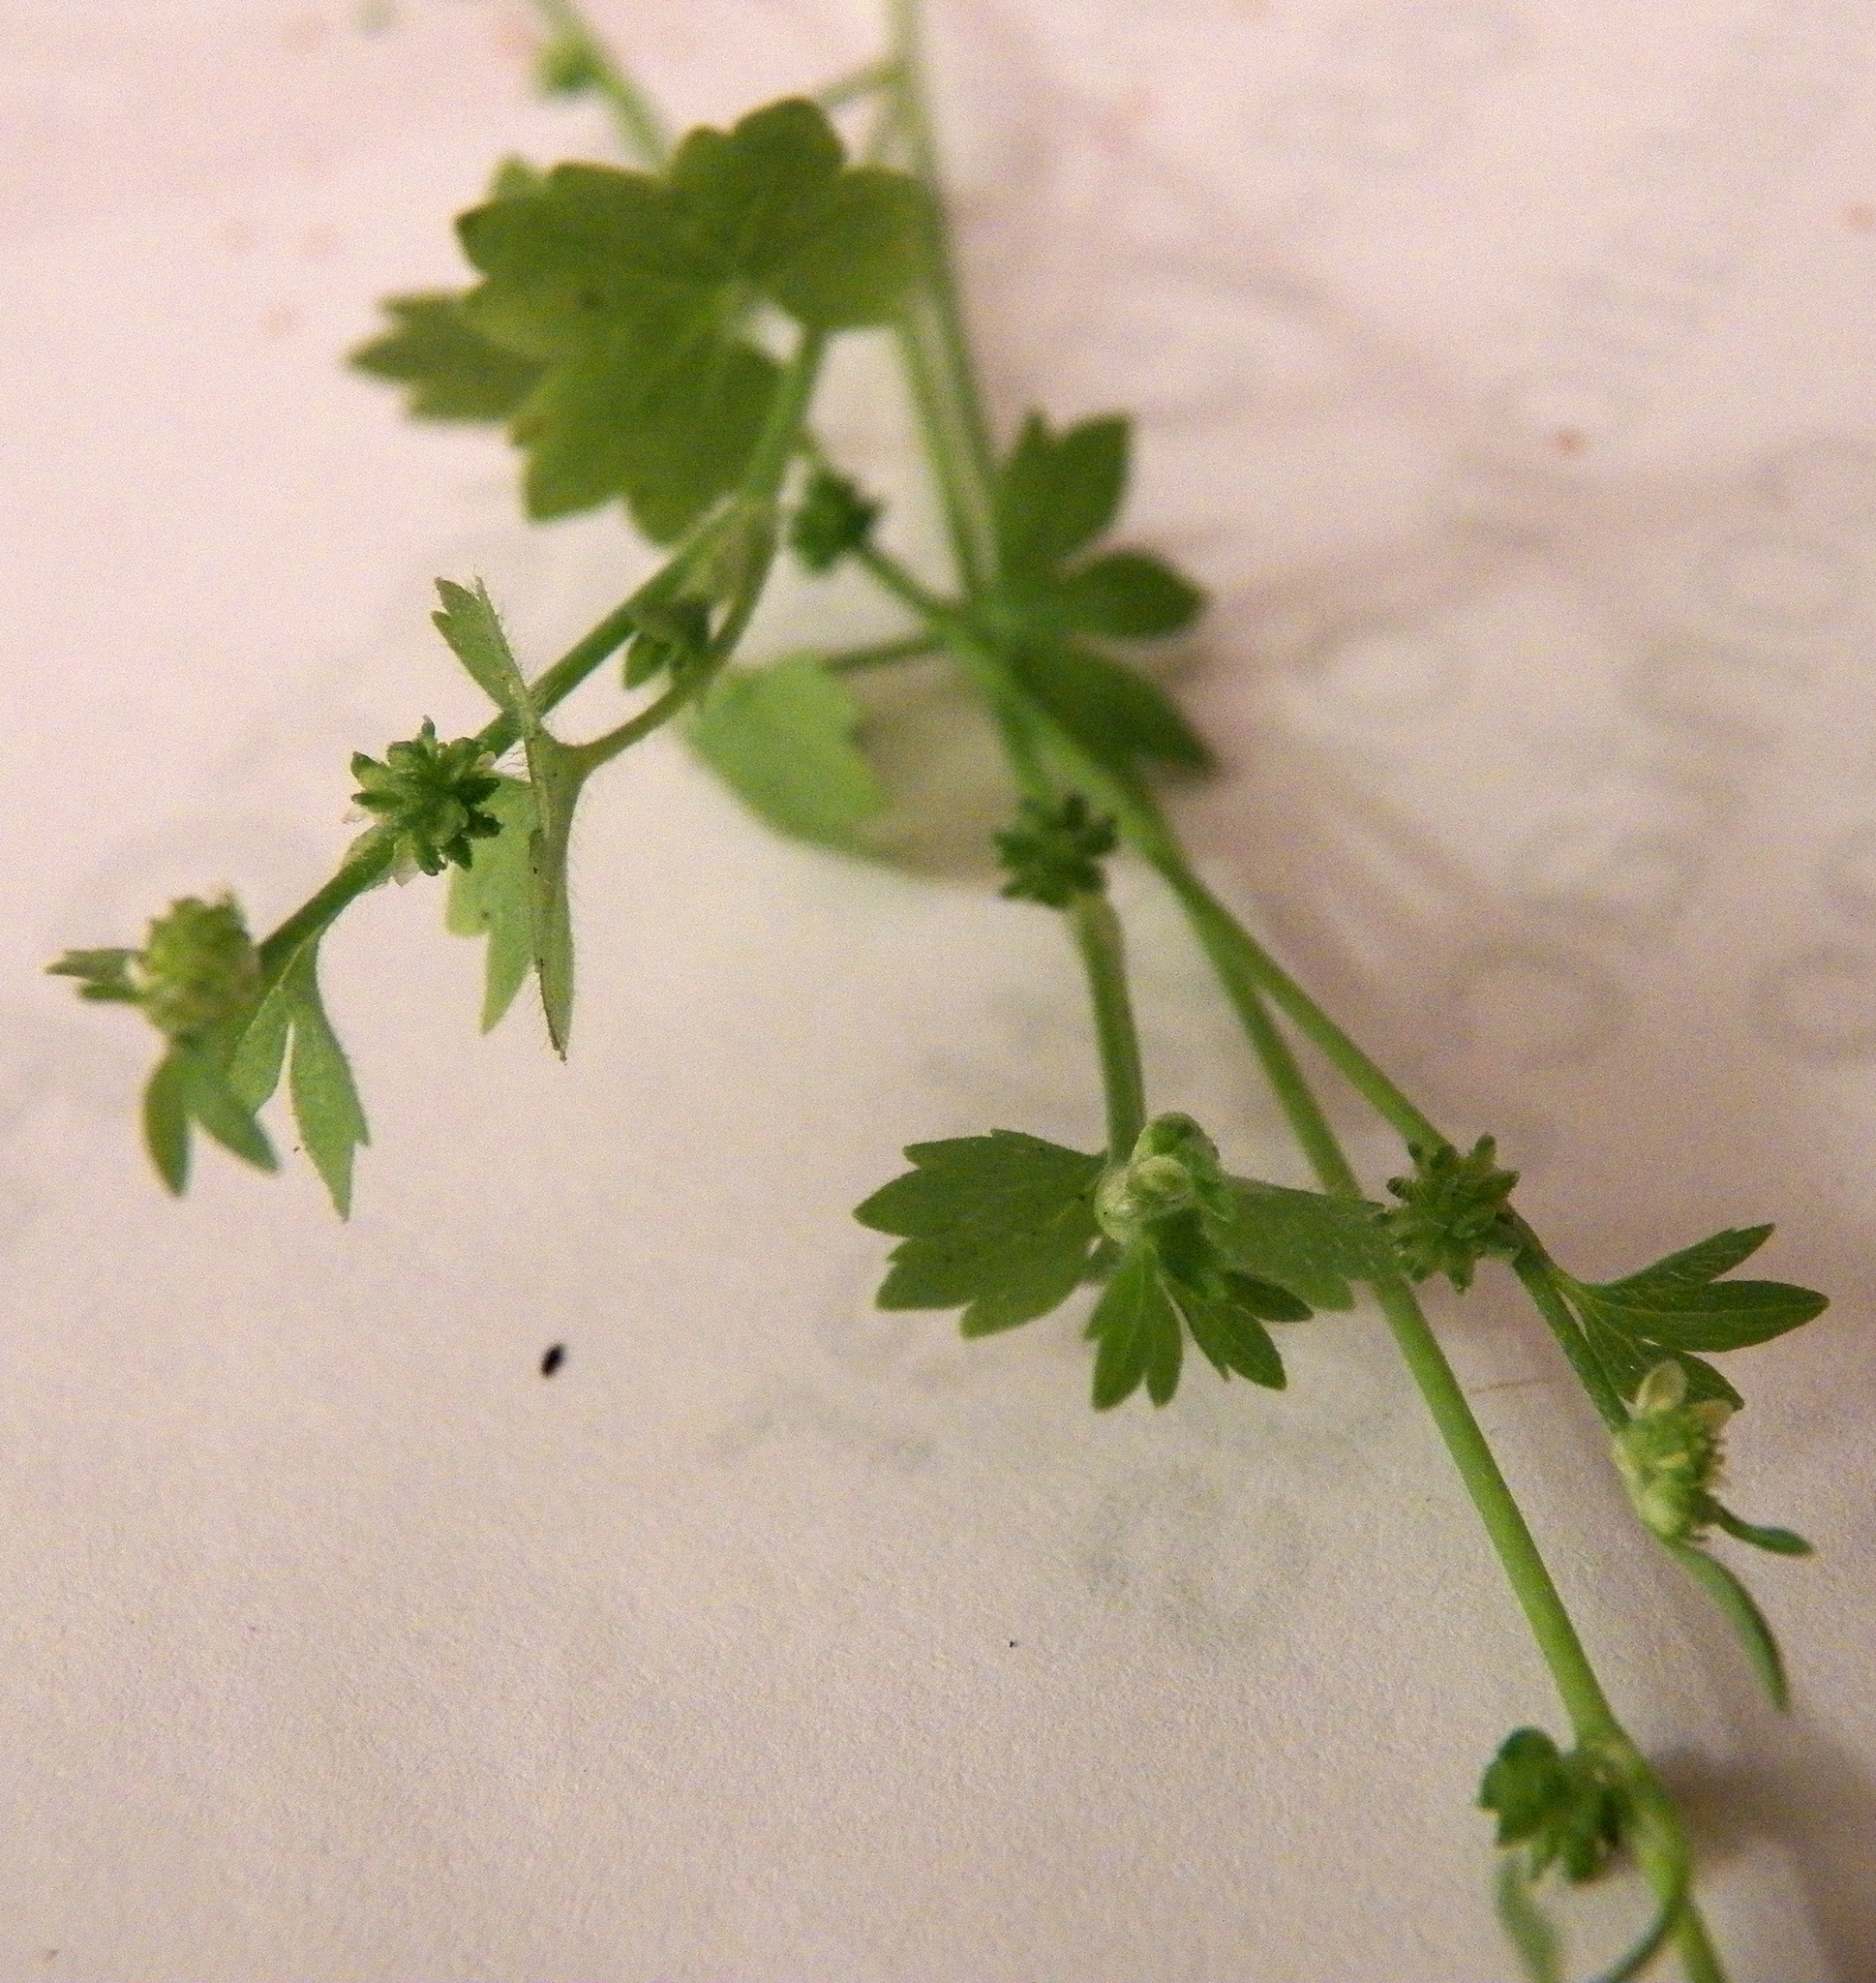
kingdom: Plantae
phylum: Tracheophyta
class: Magnoliopsida
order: Apiales
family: Apiaceae
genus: Bowlesia
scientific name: Bowlesia incana
